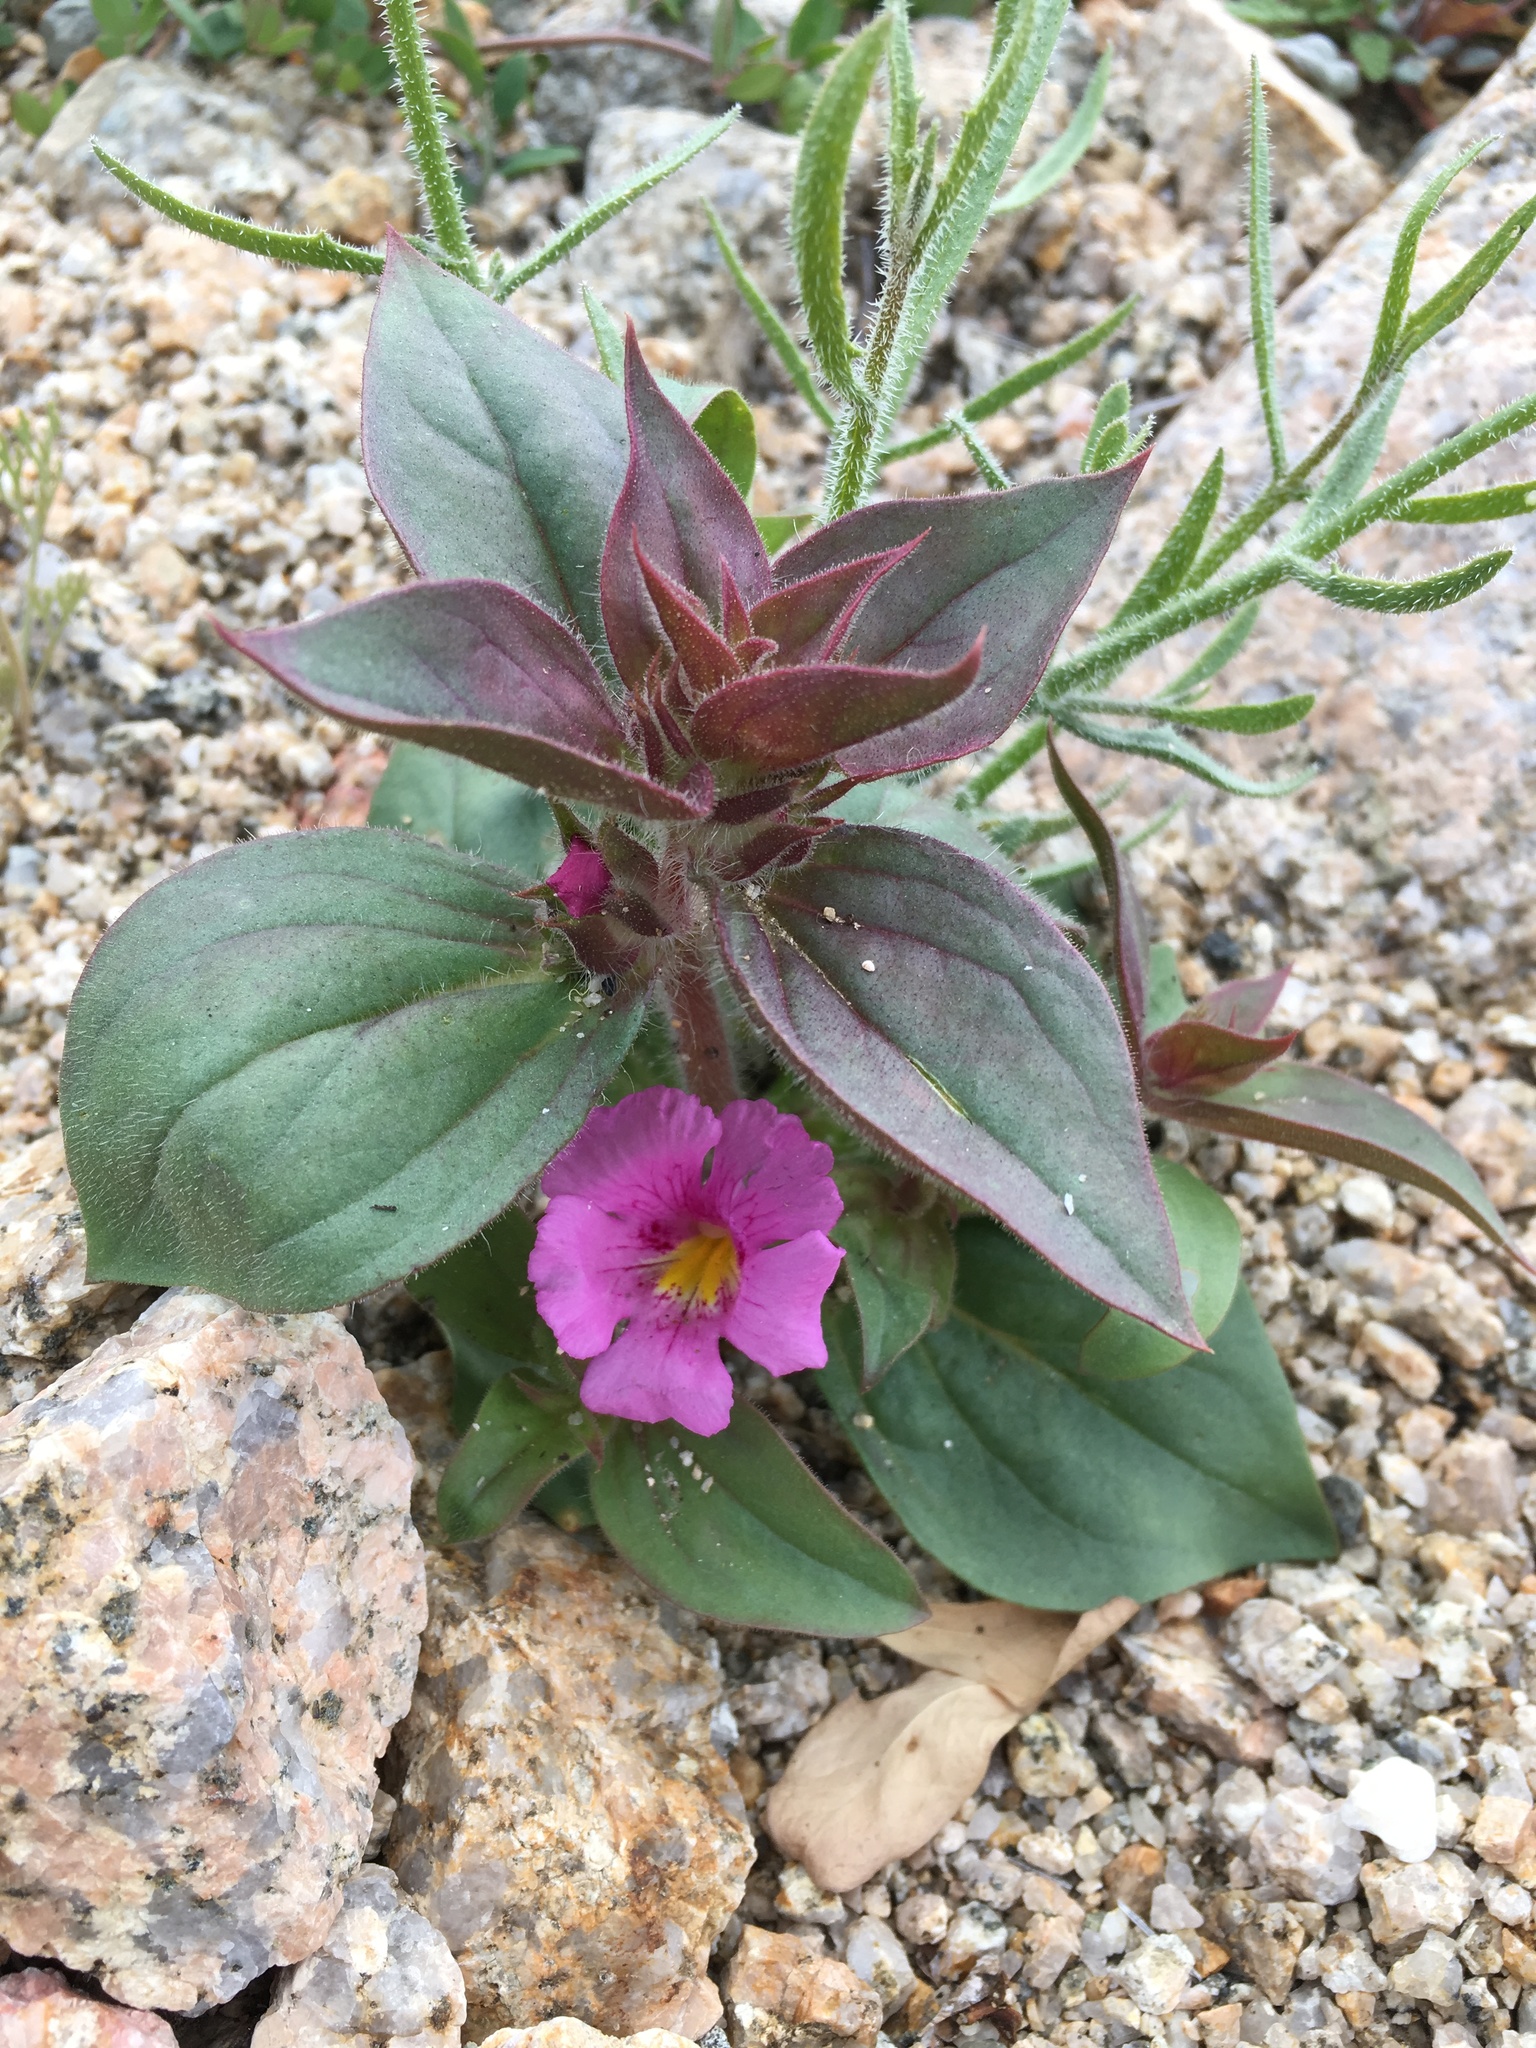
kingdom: Plantae
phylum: Tracheophyta
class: Magnoliopsida
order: Lamiales
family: Phrymaceae
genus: Diplacus
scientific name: Diplacus bigelovii
